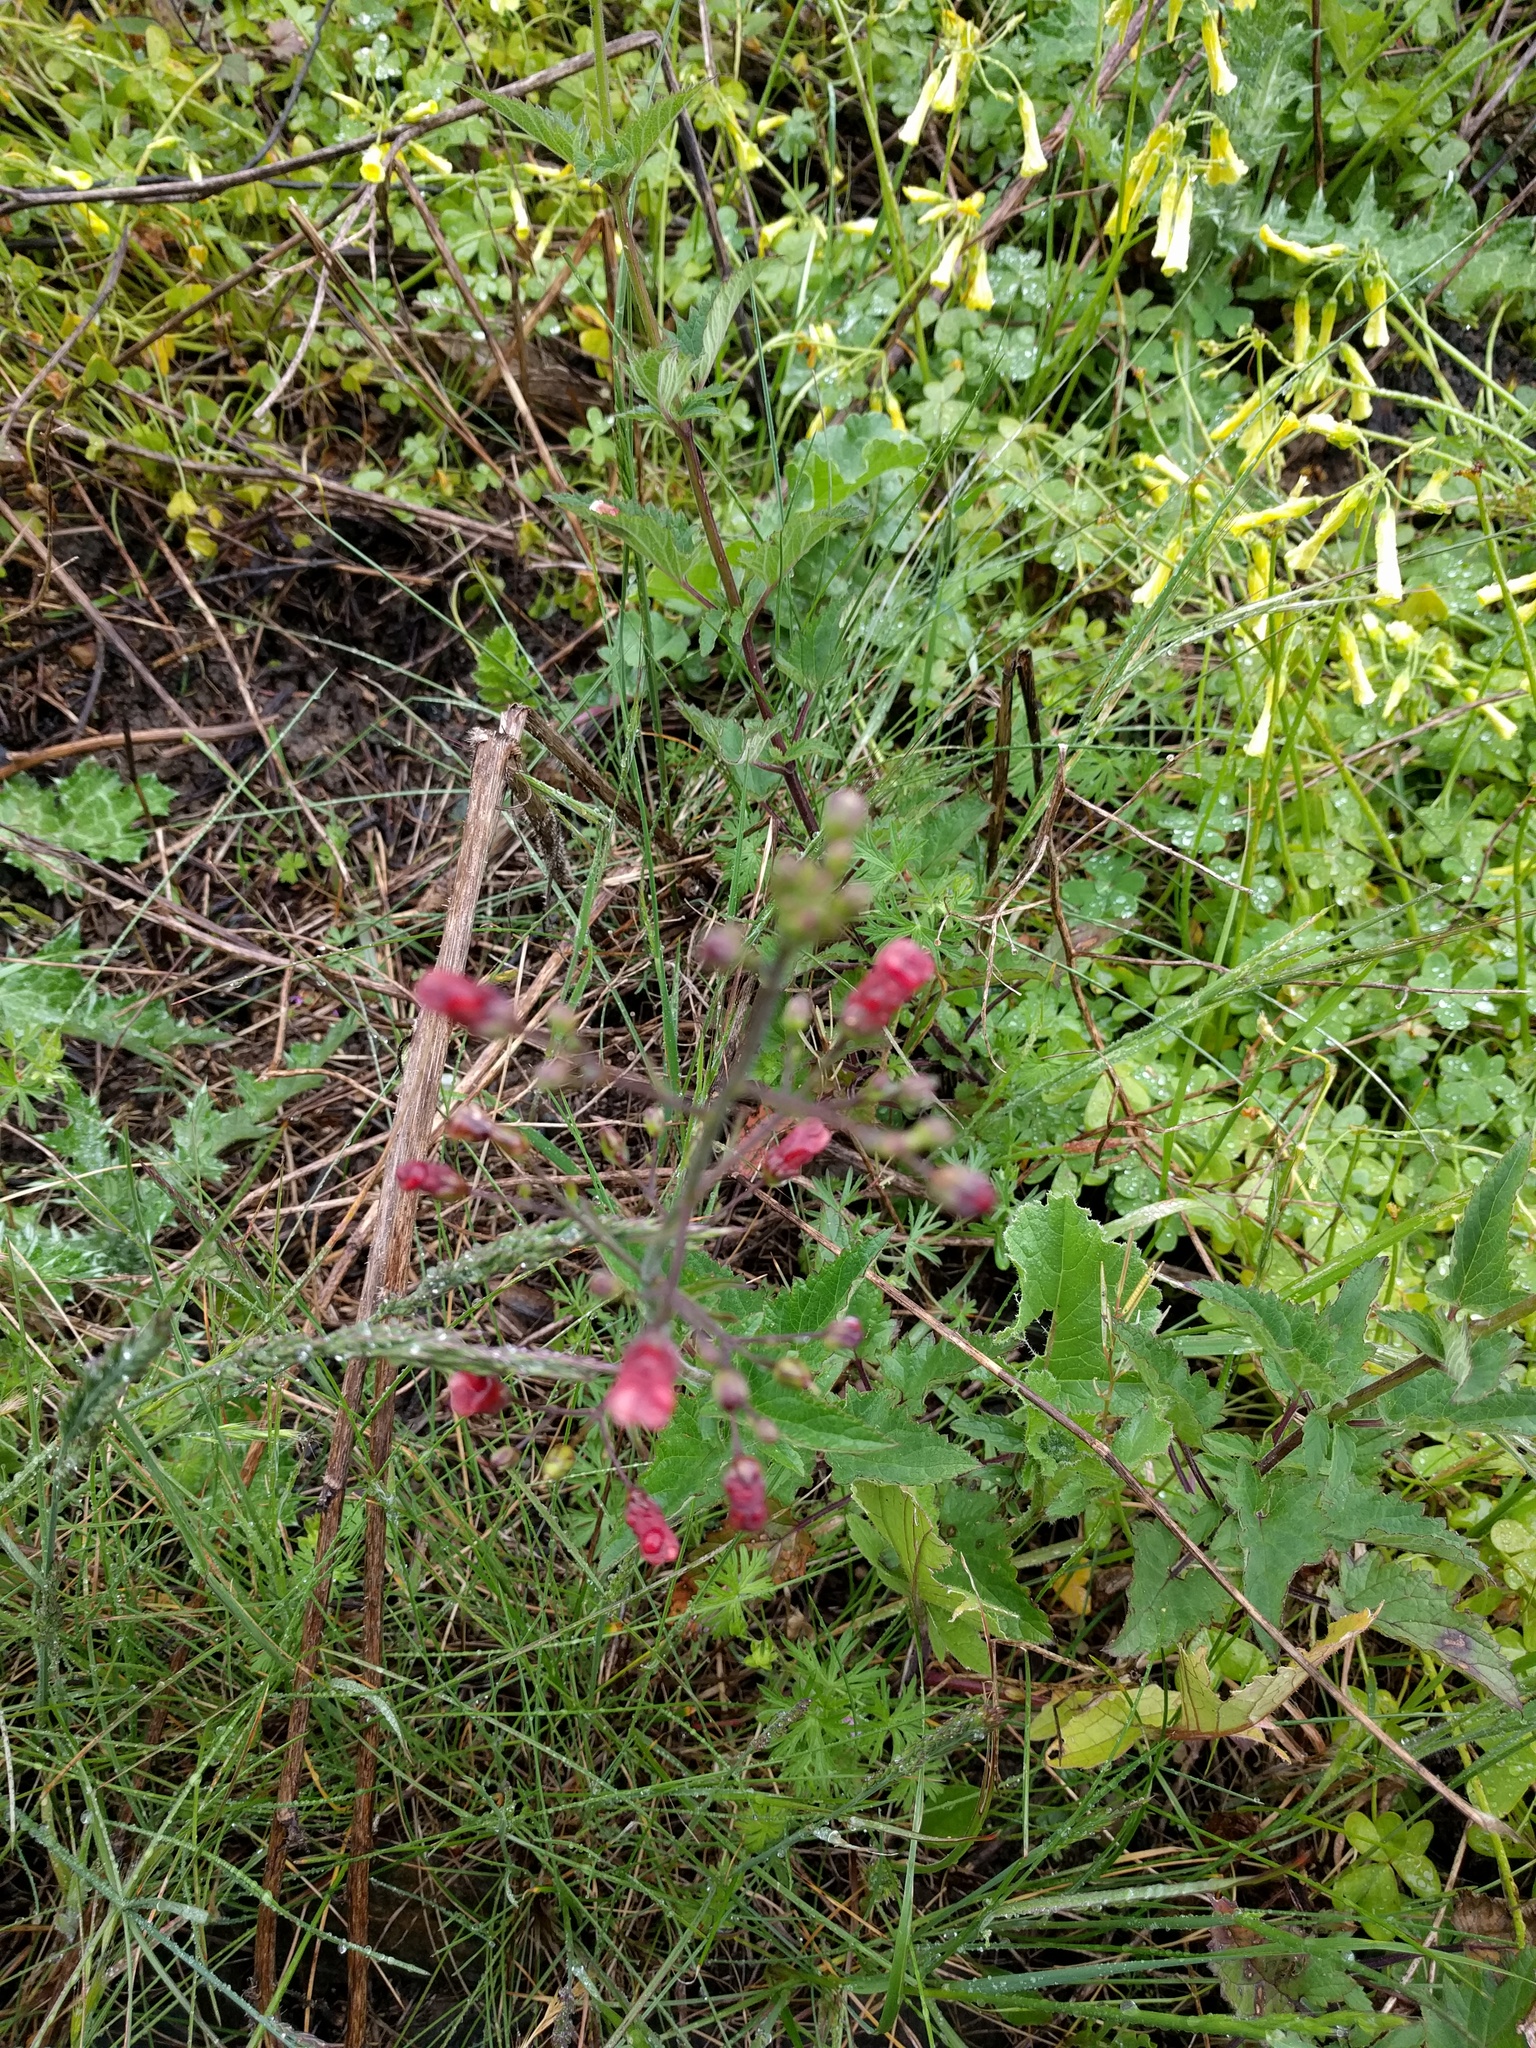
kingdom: Plantae
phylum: Tracheophyta
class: Magnoliopsida
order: Lamiales
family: Scrophulariaceae
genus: Scrophularia
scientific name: Scrophularia californica
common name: California figwort
